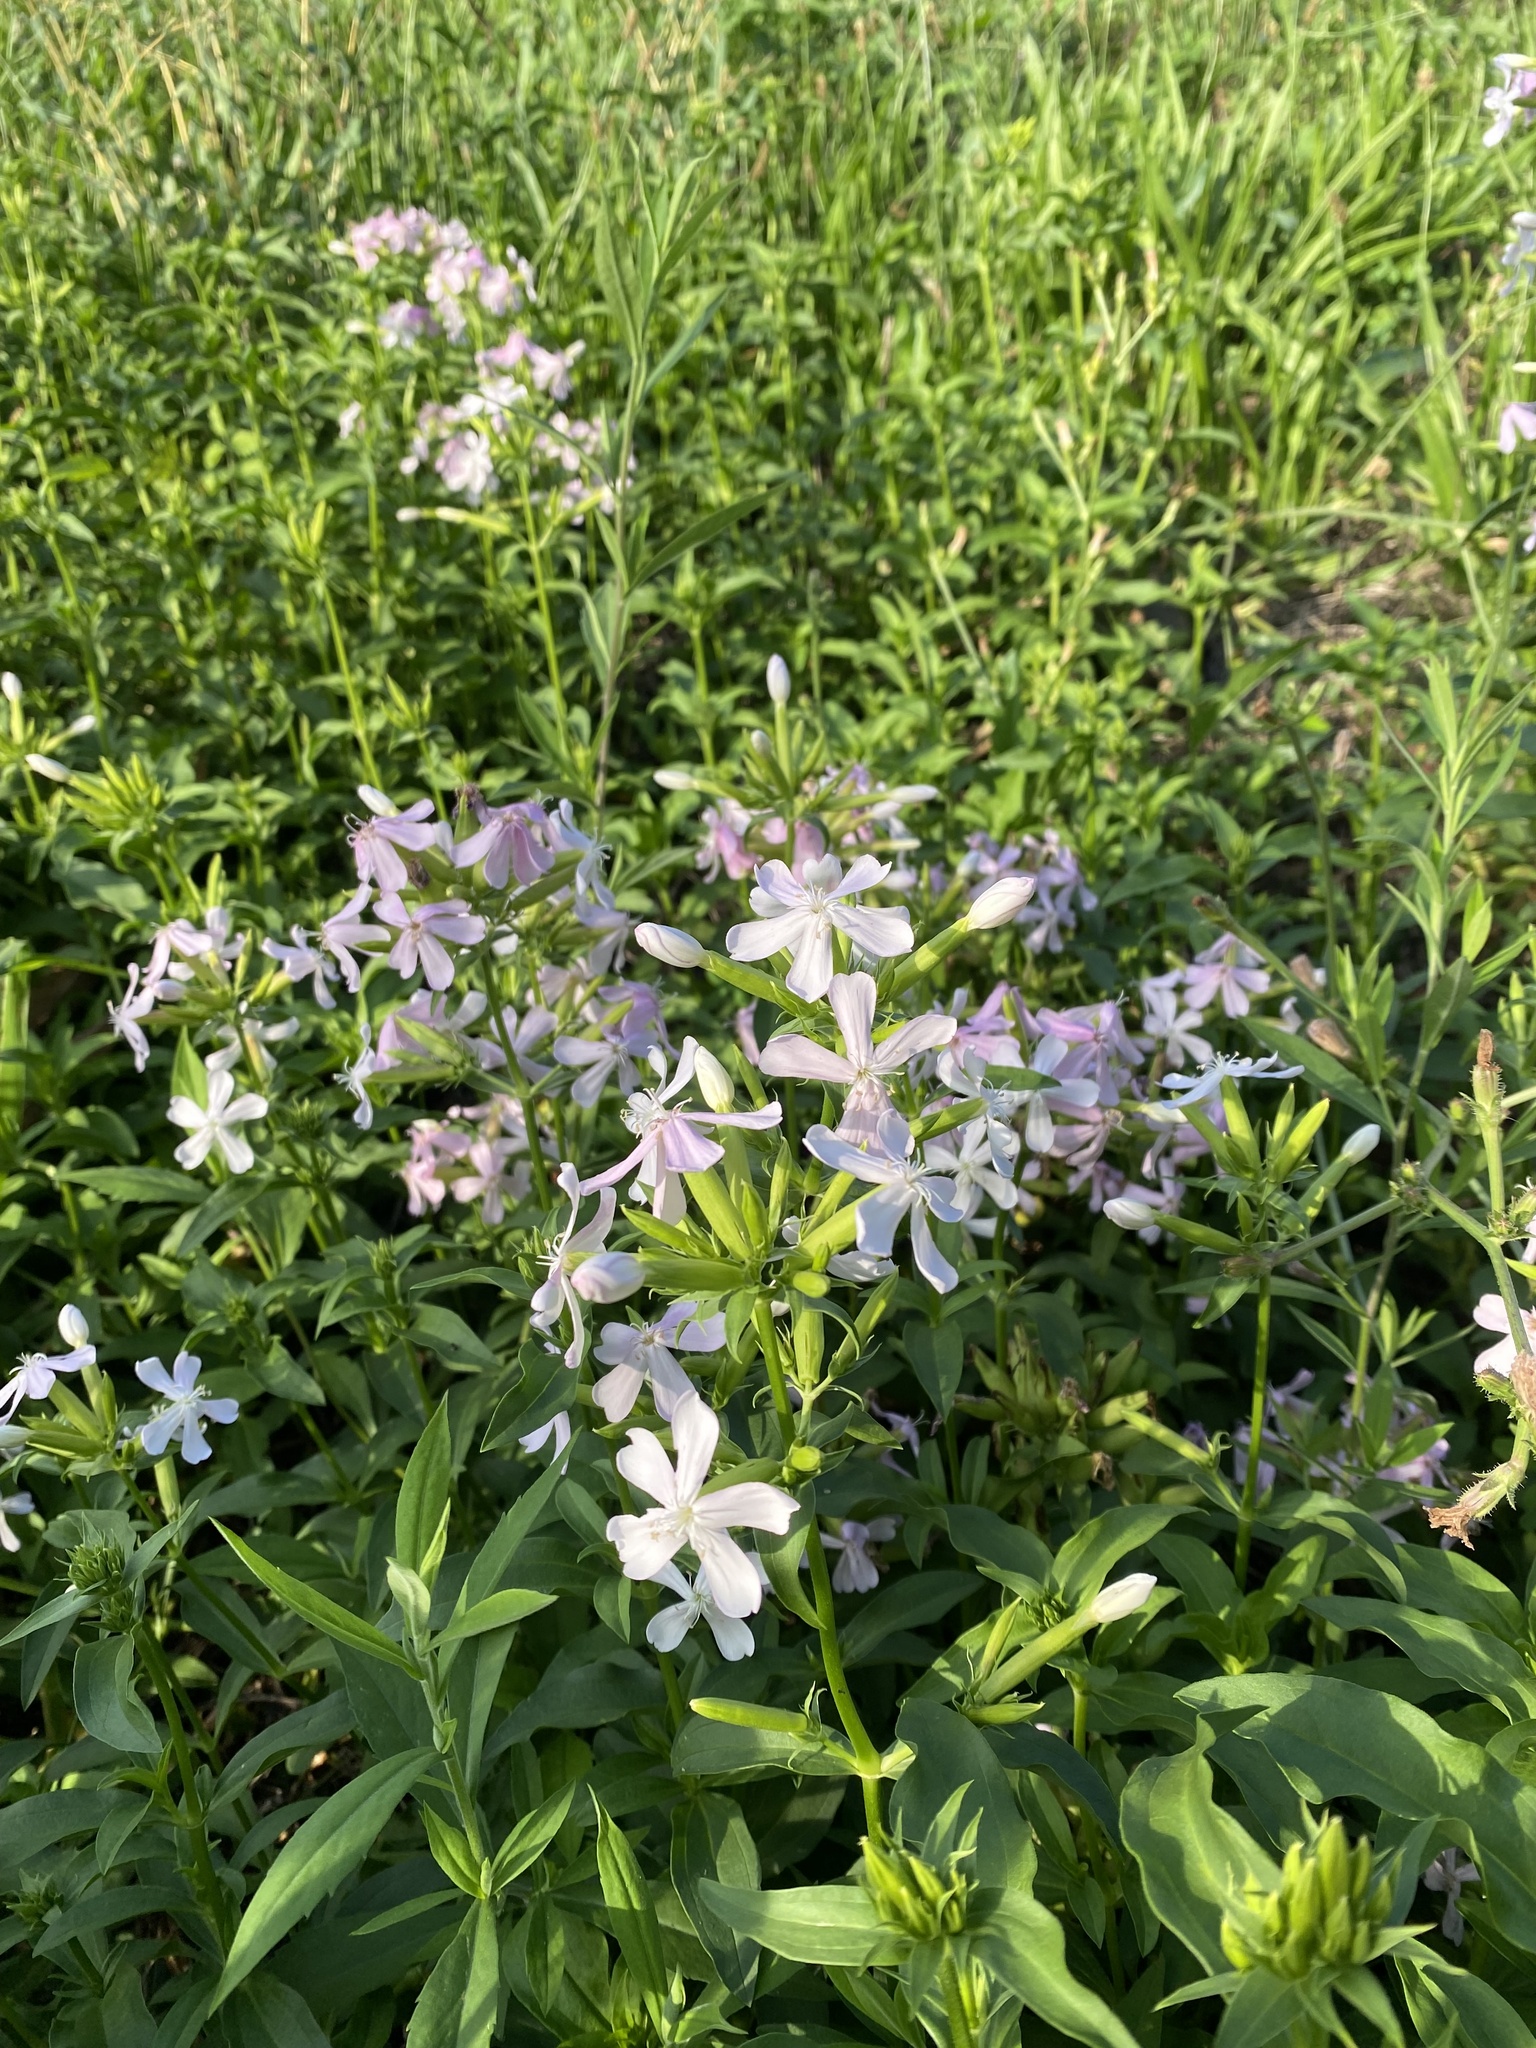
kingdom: Plantae
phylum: Tracheophyta
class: Magnoliopsida
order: Caryophyllales
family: Caryophyllaceae
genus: Saponaria
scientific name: Saponaria officinalis
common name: Soapwort
